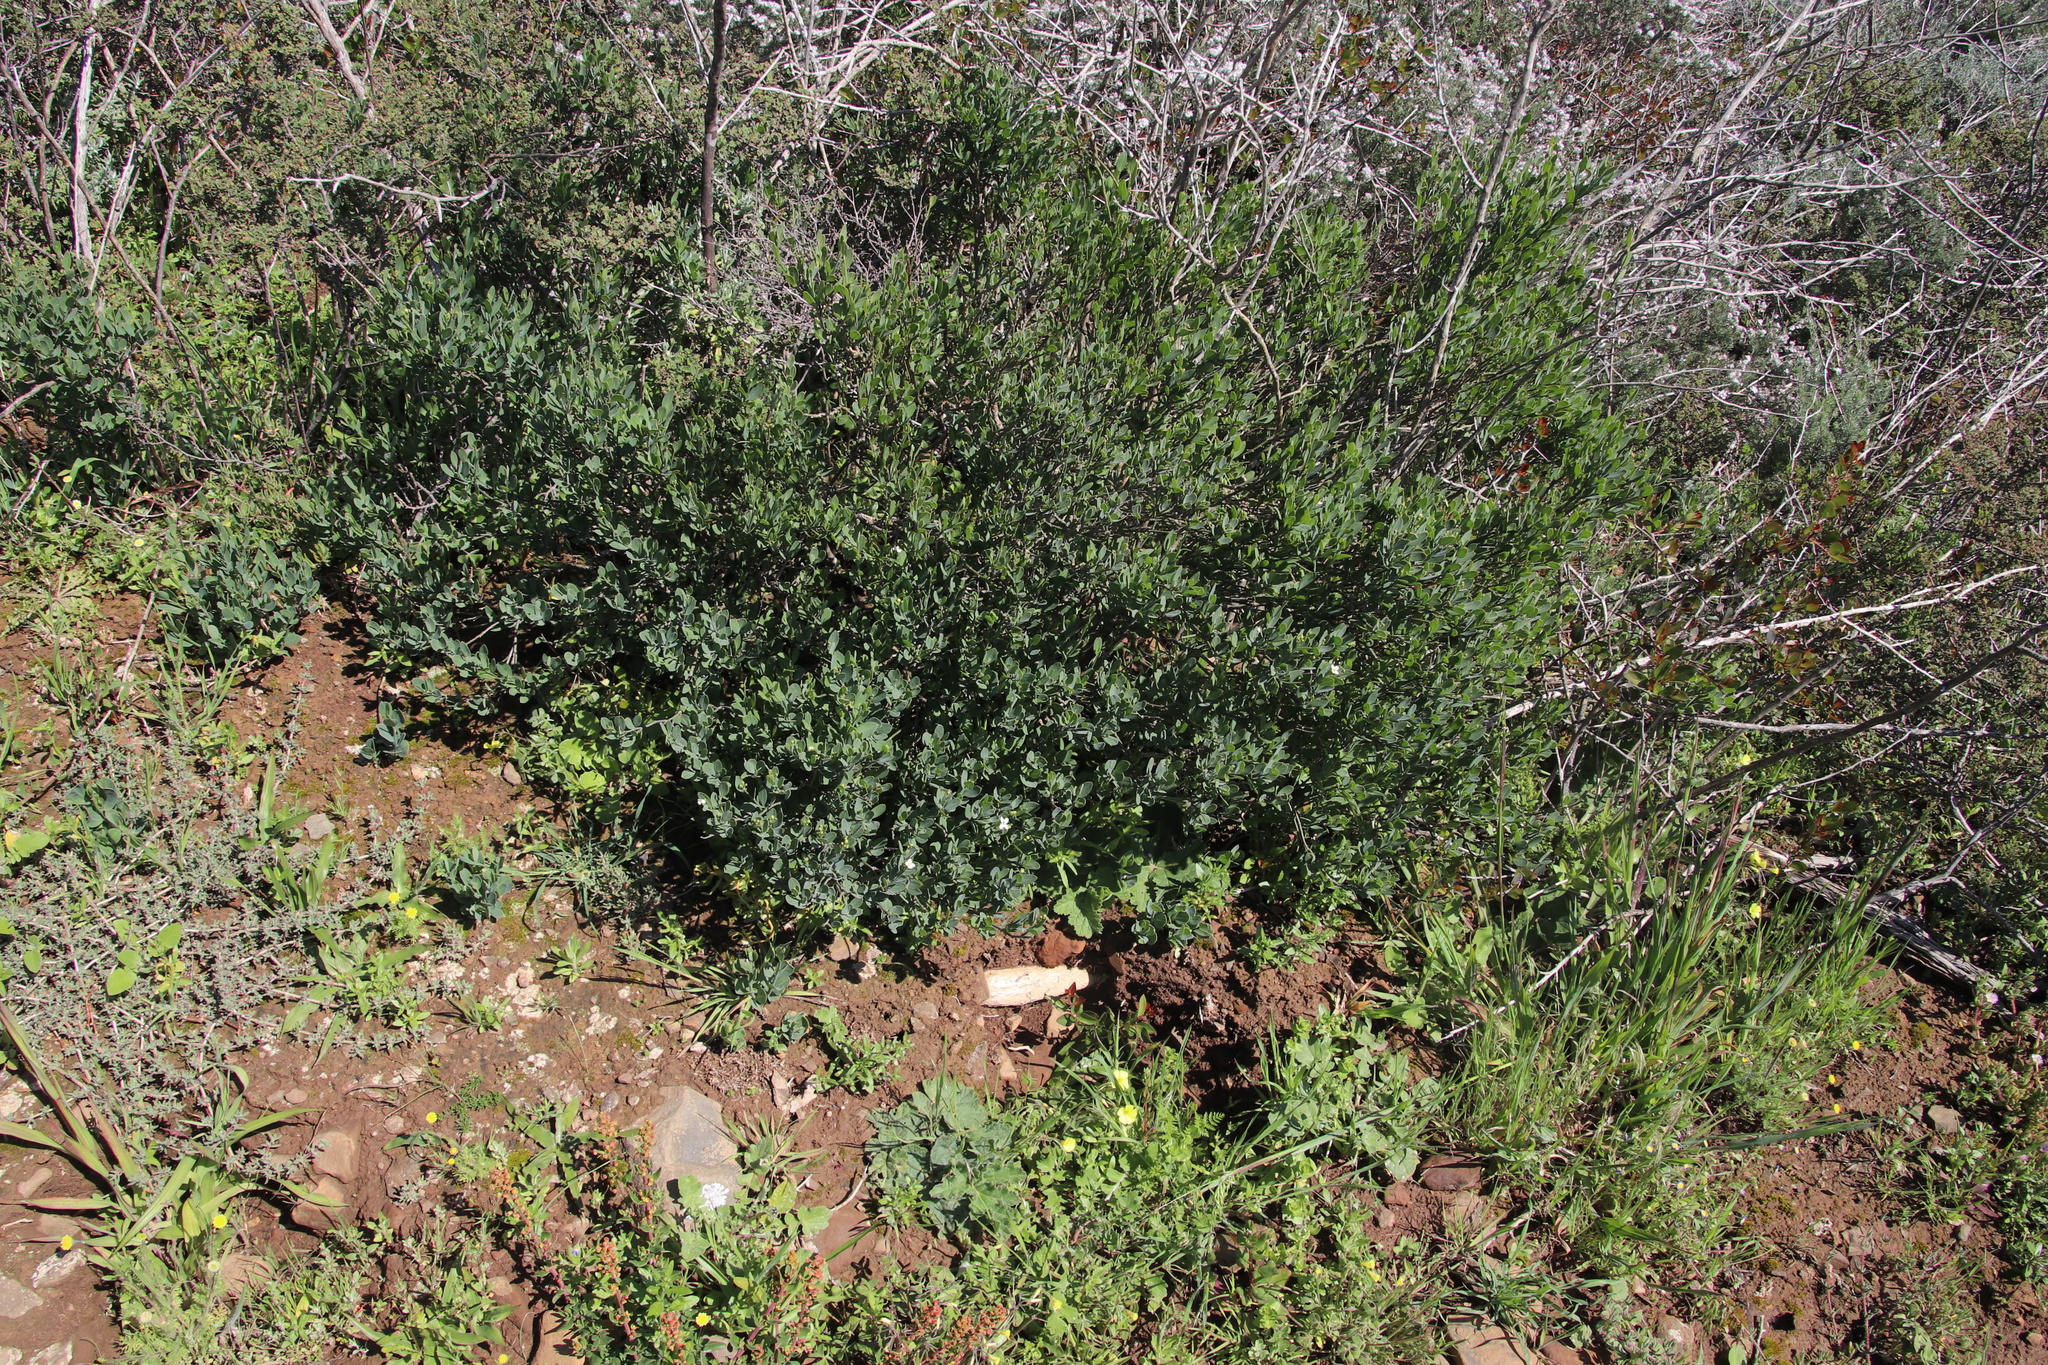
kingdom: Plantae
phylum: Tracheophyta
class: Magnoliopsida
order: Santalales
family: Santalaceae
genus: Osyris
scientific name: Osyris compressa
